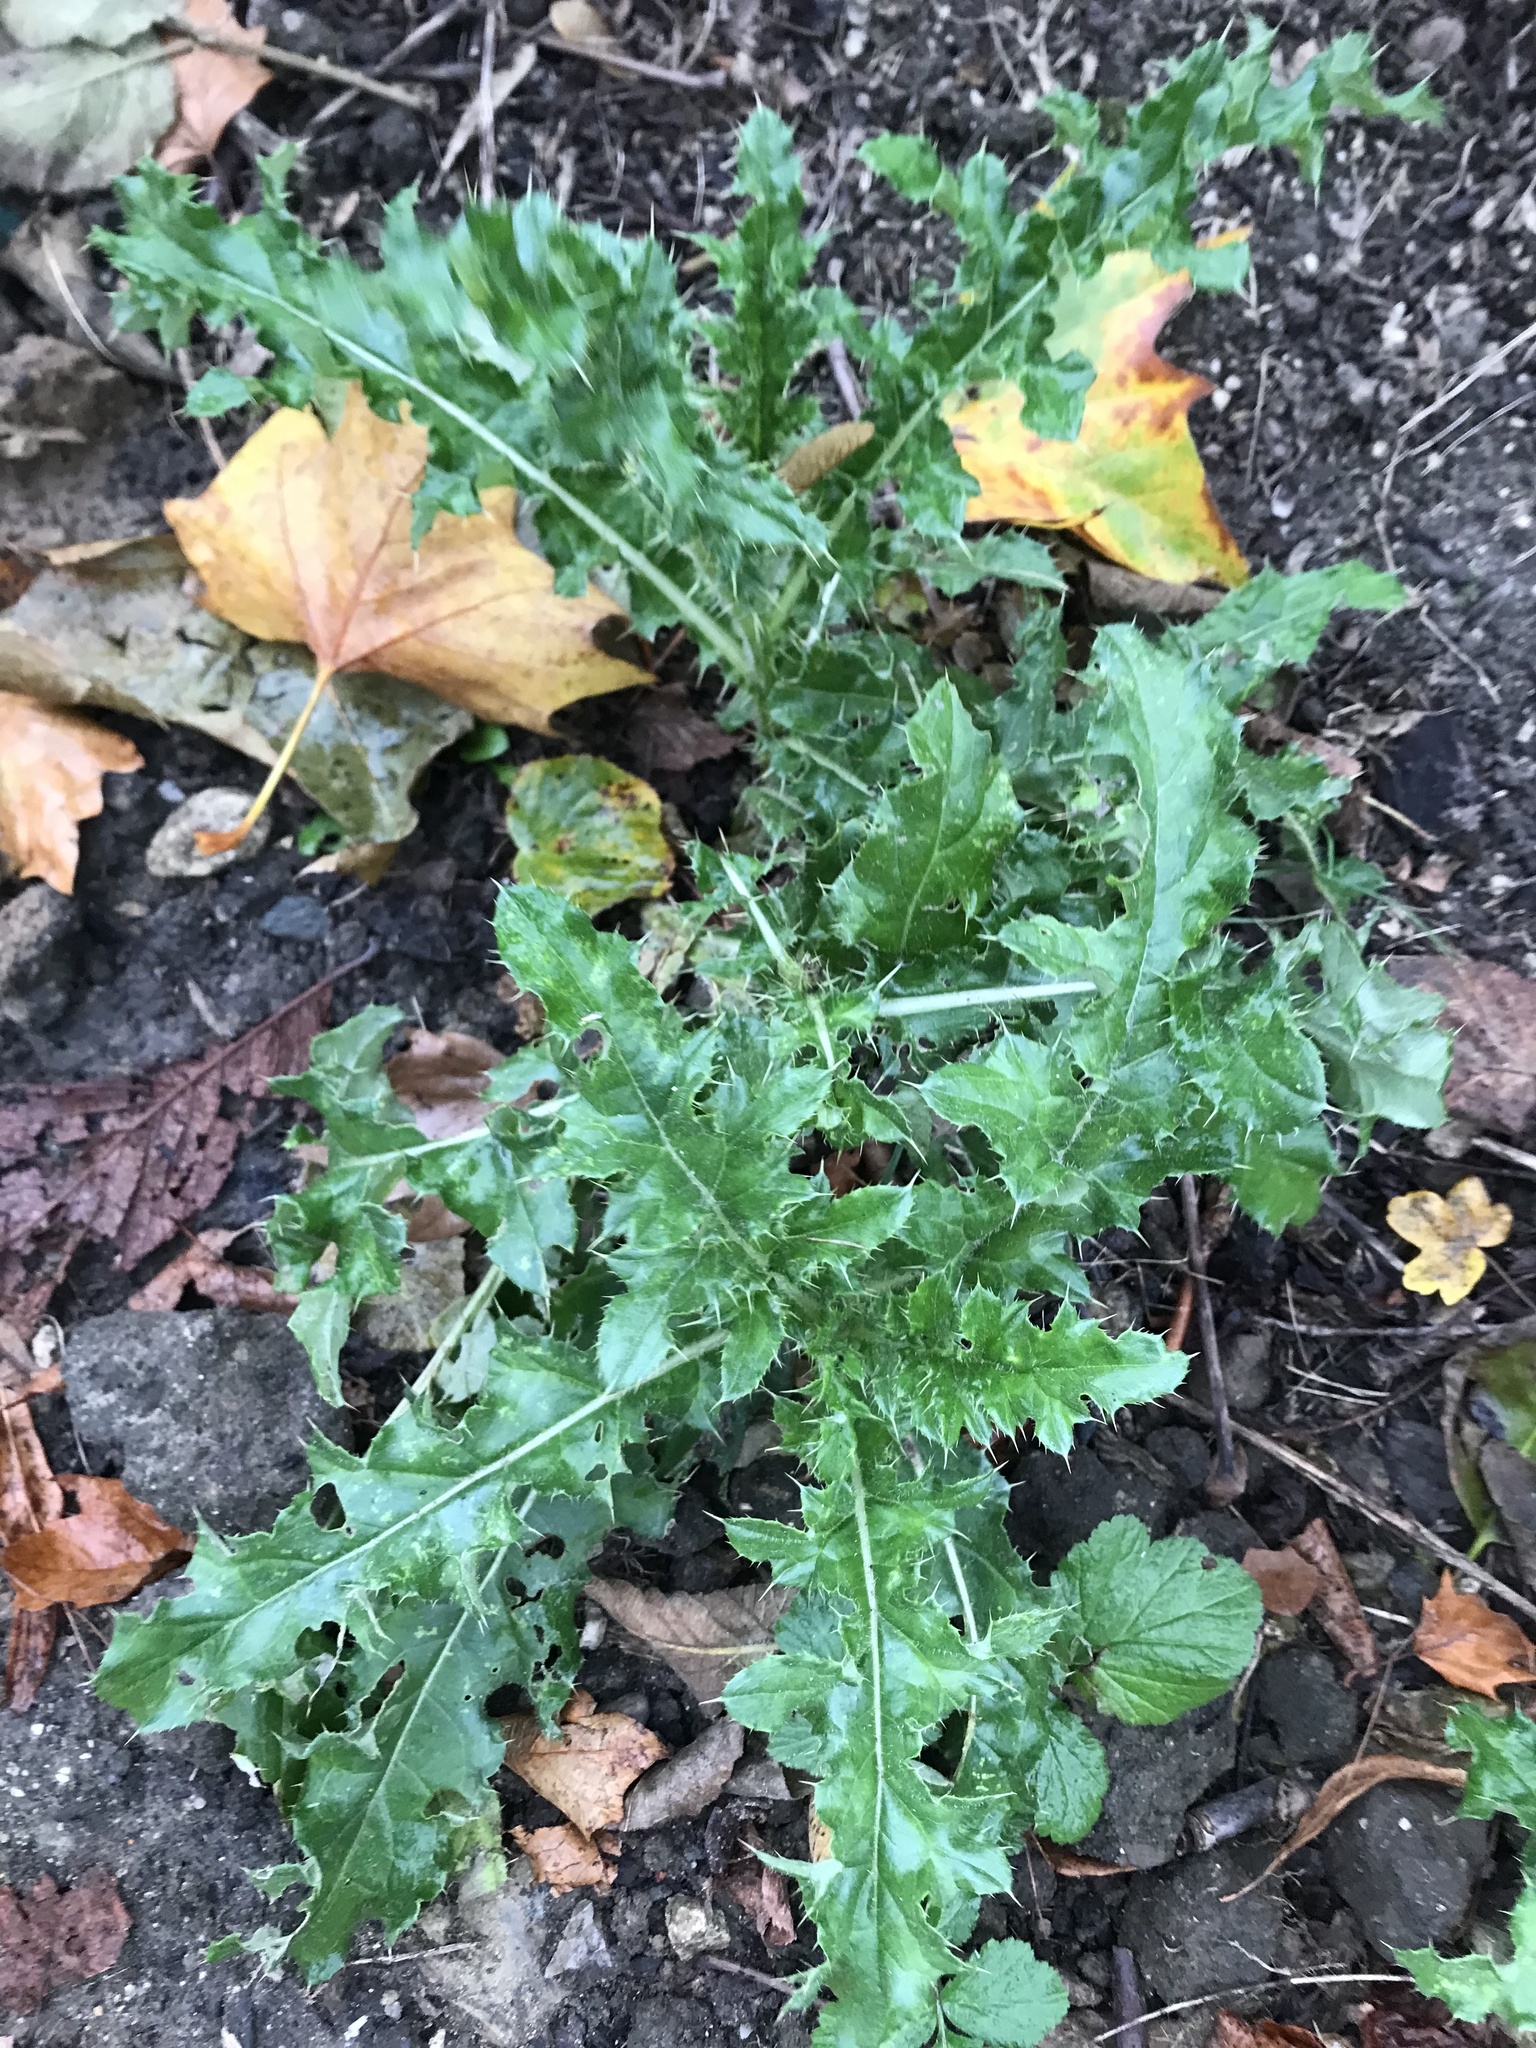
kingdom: Plantae
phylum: Tracheophyta
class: Magnoliopsida
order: Asterales
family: Asteraceae
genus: Cirsium
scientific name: Cirsium arvense
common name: Creeping thistle
